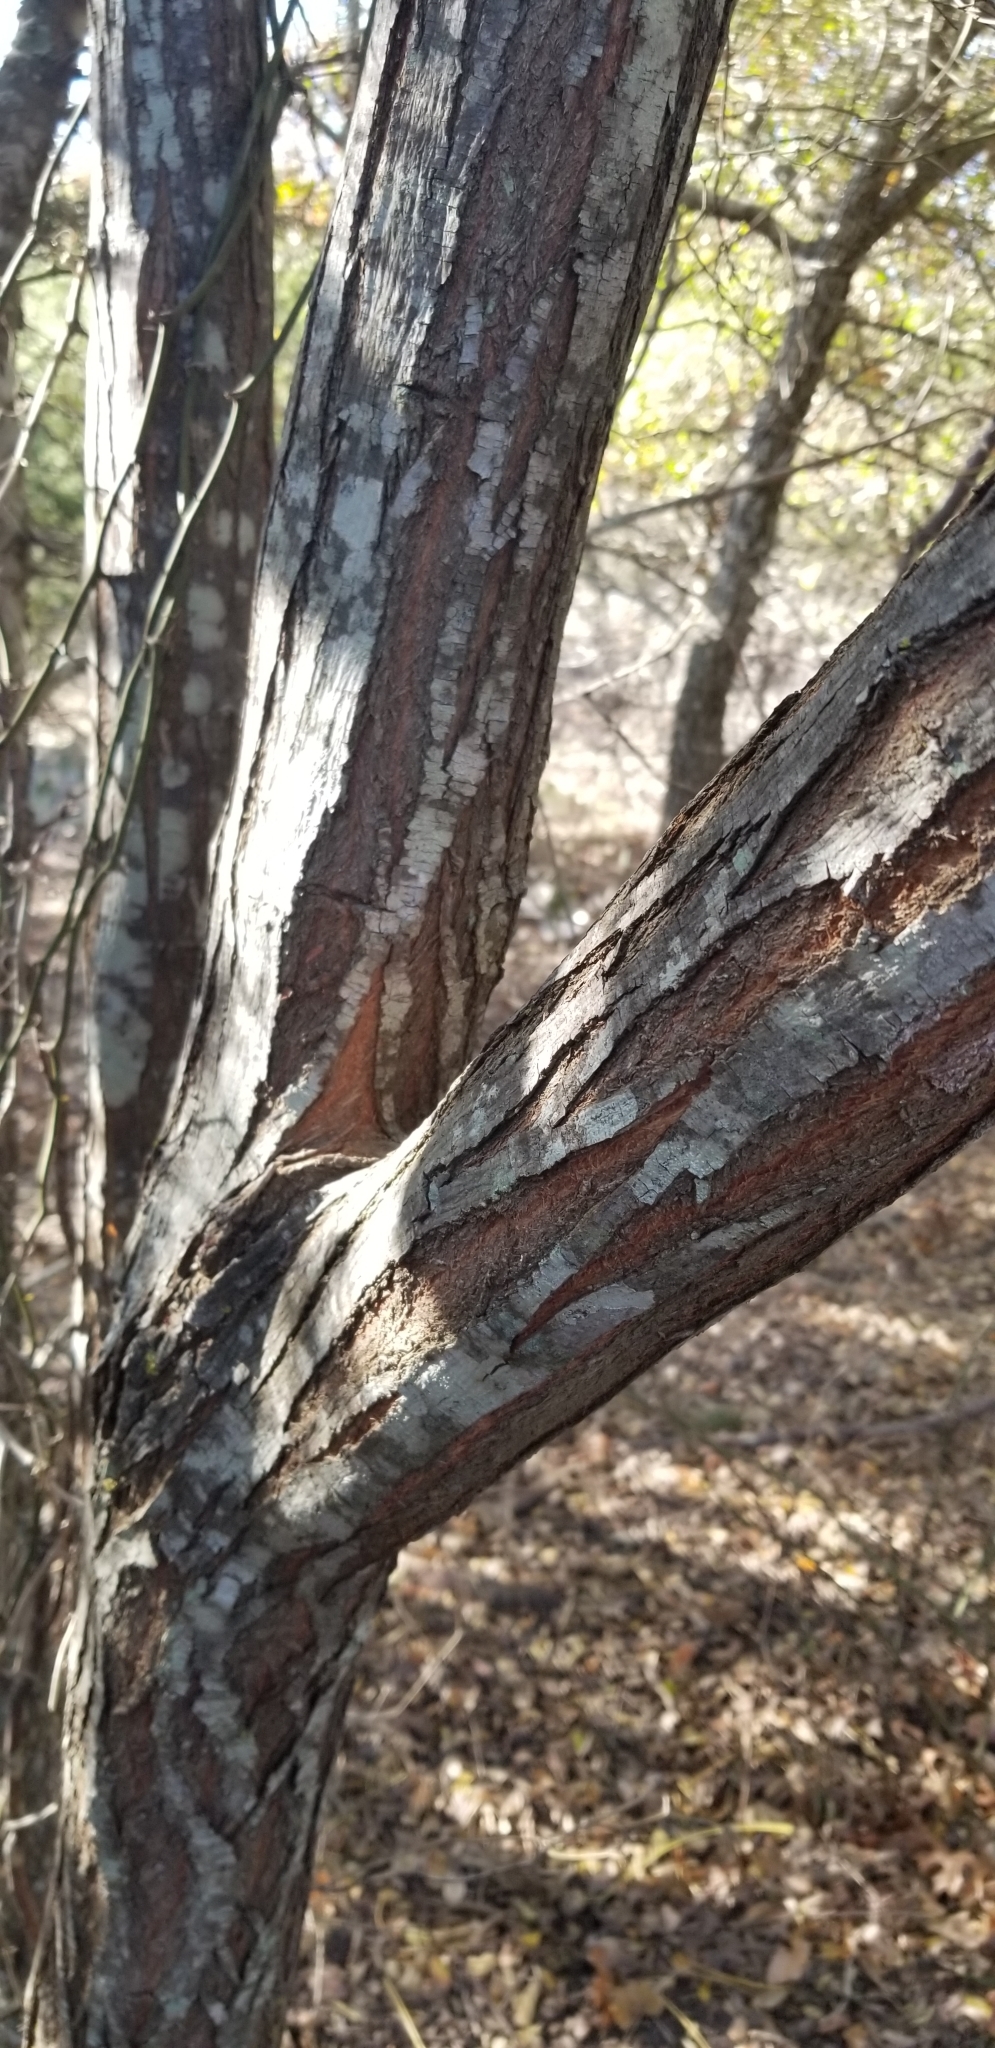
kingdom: Plantae
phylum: Tracheophyta
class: Magnoliopsida
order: Sapindales
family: Meliaceae
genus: Melia
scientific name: Melia azedarach
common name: Chinaberrytree
